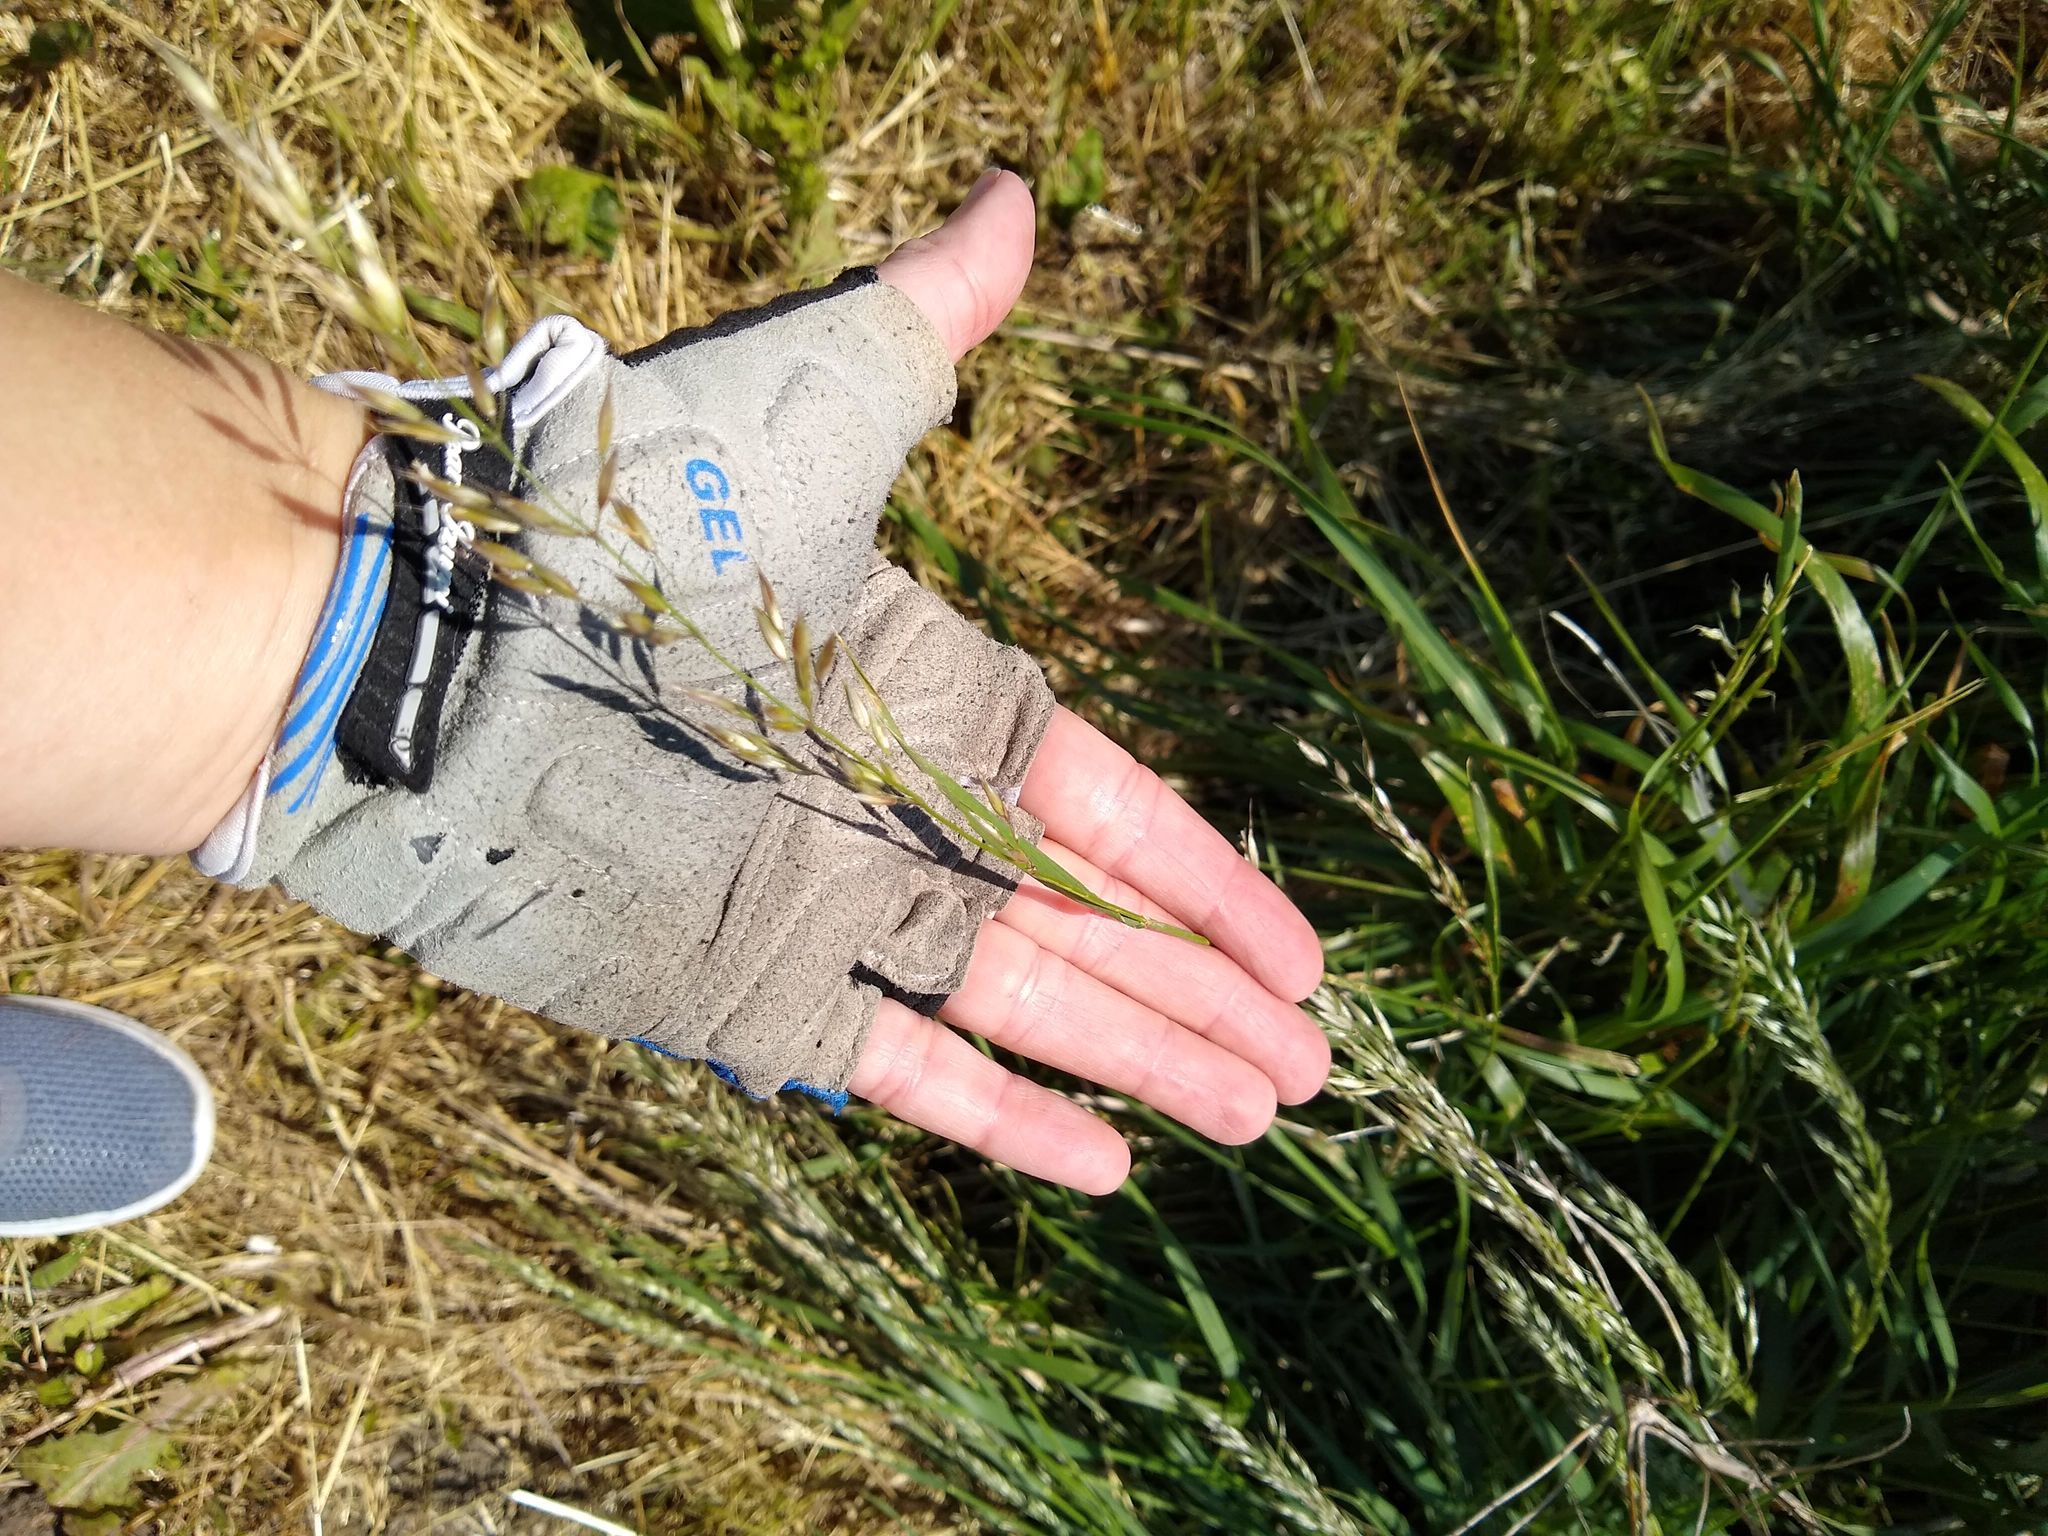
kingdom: Plantae
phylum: Tracheophyta
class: Liliopsida
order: Poales
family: Poaceae
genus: Arrhenatherum
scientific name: Arrhenatherum elatius
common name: Tall oatgrass
